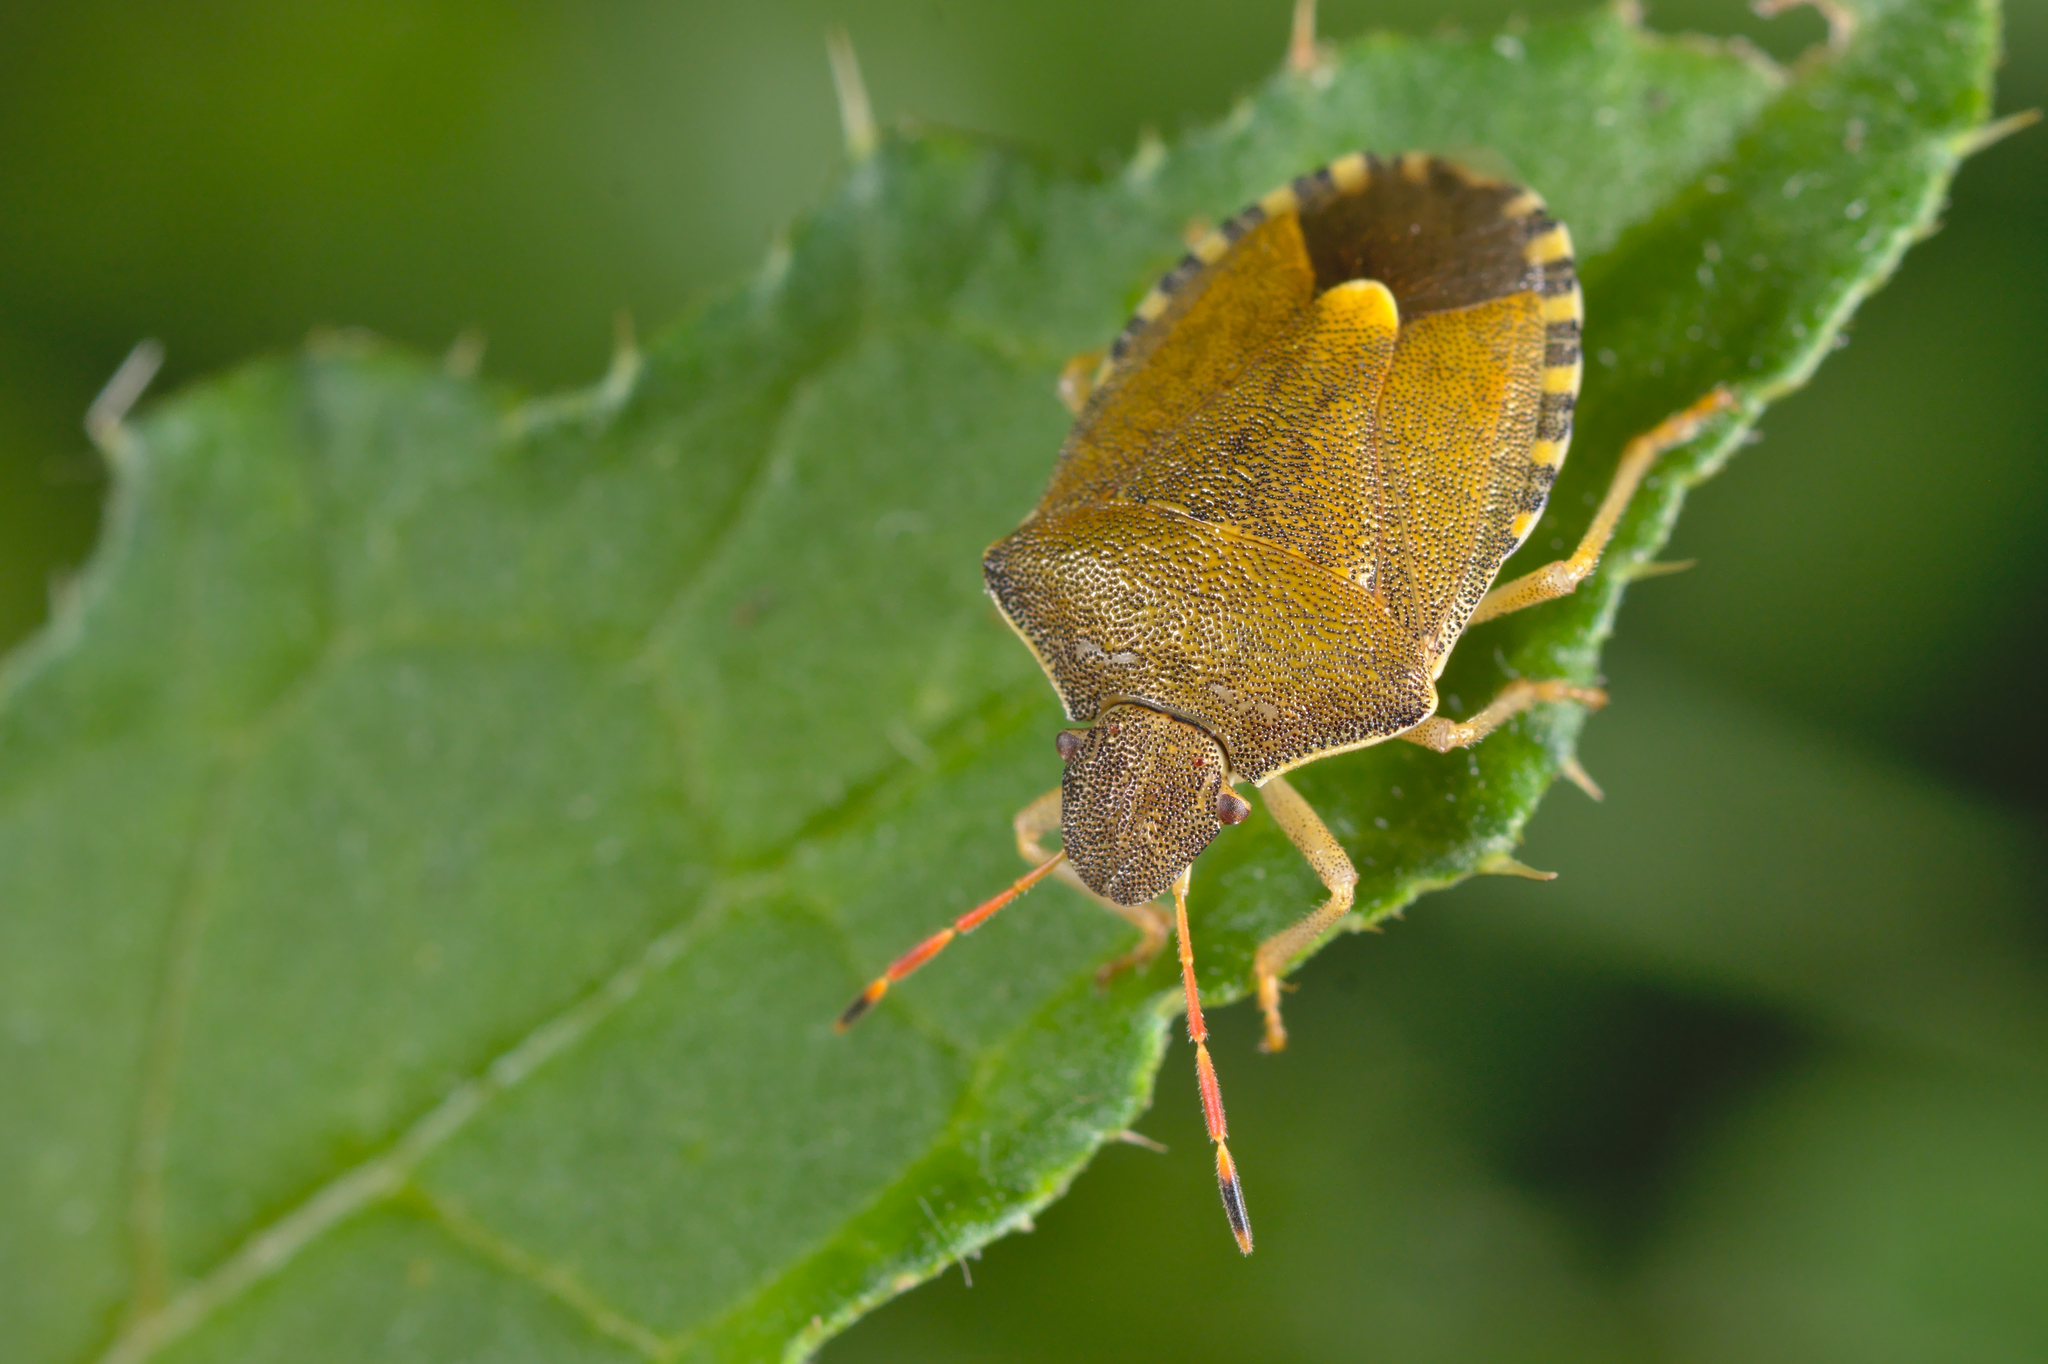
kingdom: Animalia
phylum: Arthropoda
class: Insecta
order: Hemiptera
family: Pentatomidae
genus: Holcostethus
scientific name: Holcostethus strictus
